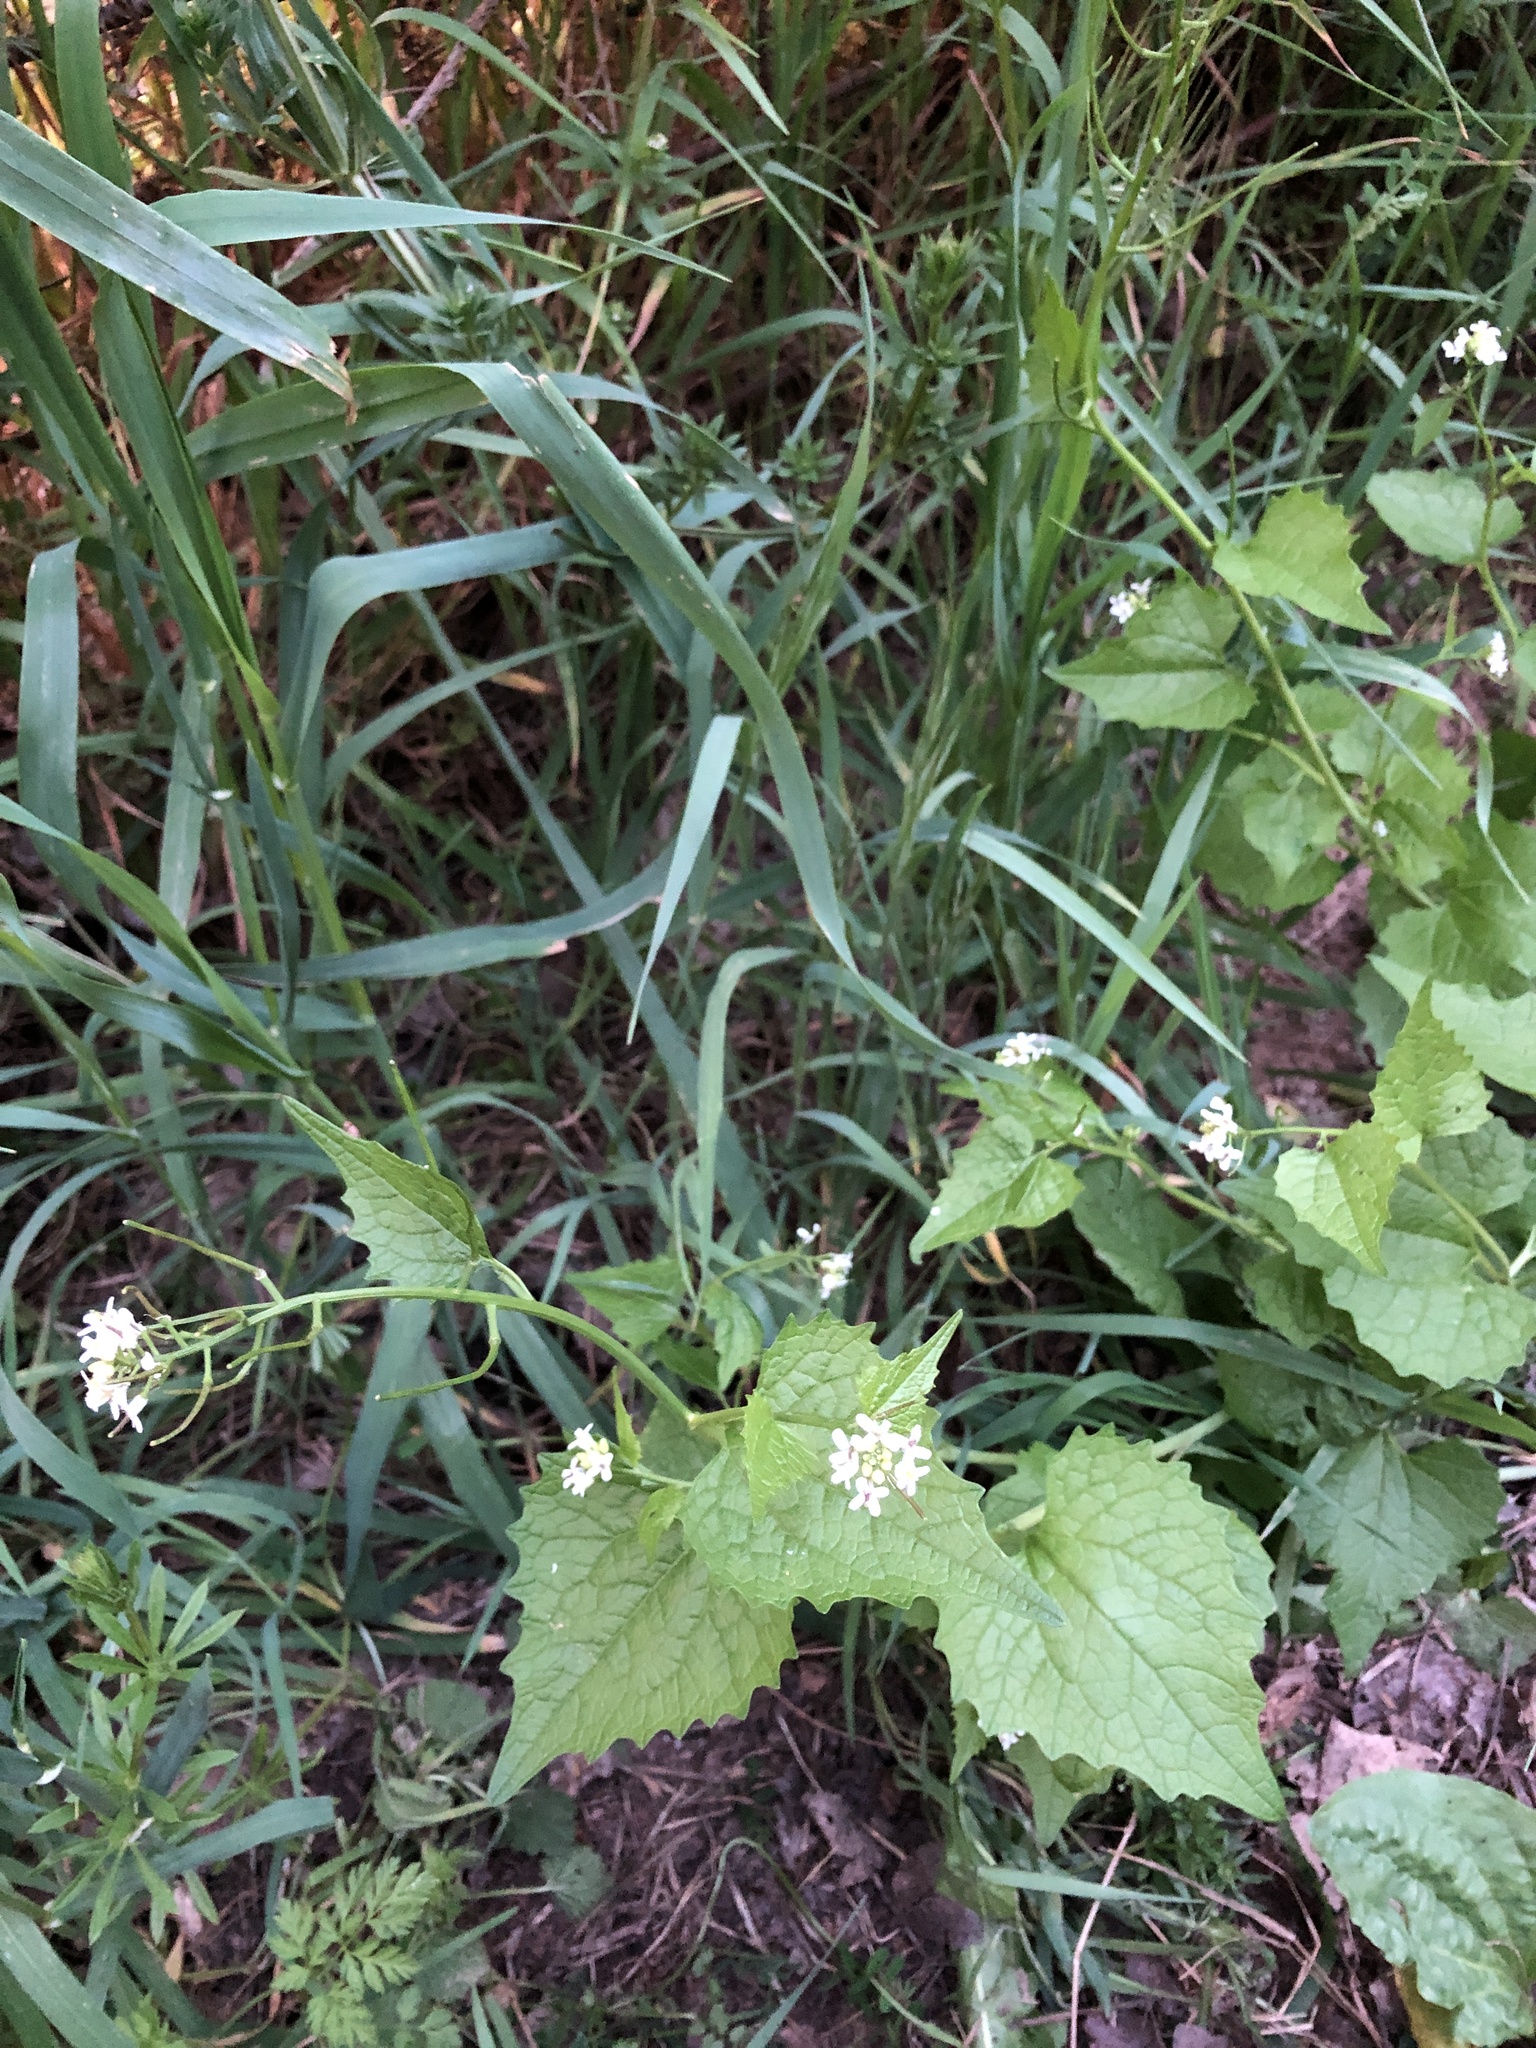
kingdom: Plantae
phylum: Tracheophyta
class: Magnoliopsida
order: Brassicales
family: Brassicaceae
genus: Alliaria
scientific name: Alliaria petiolata
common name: Garlic mustard
